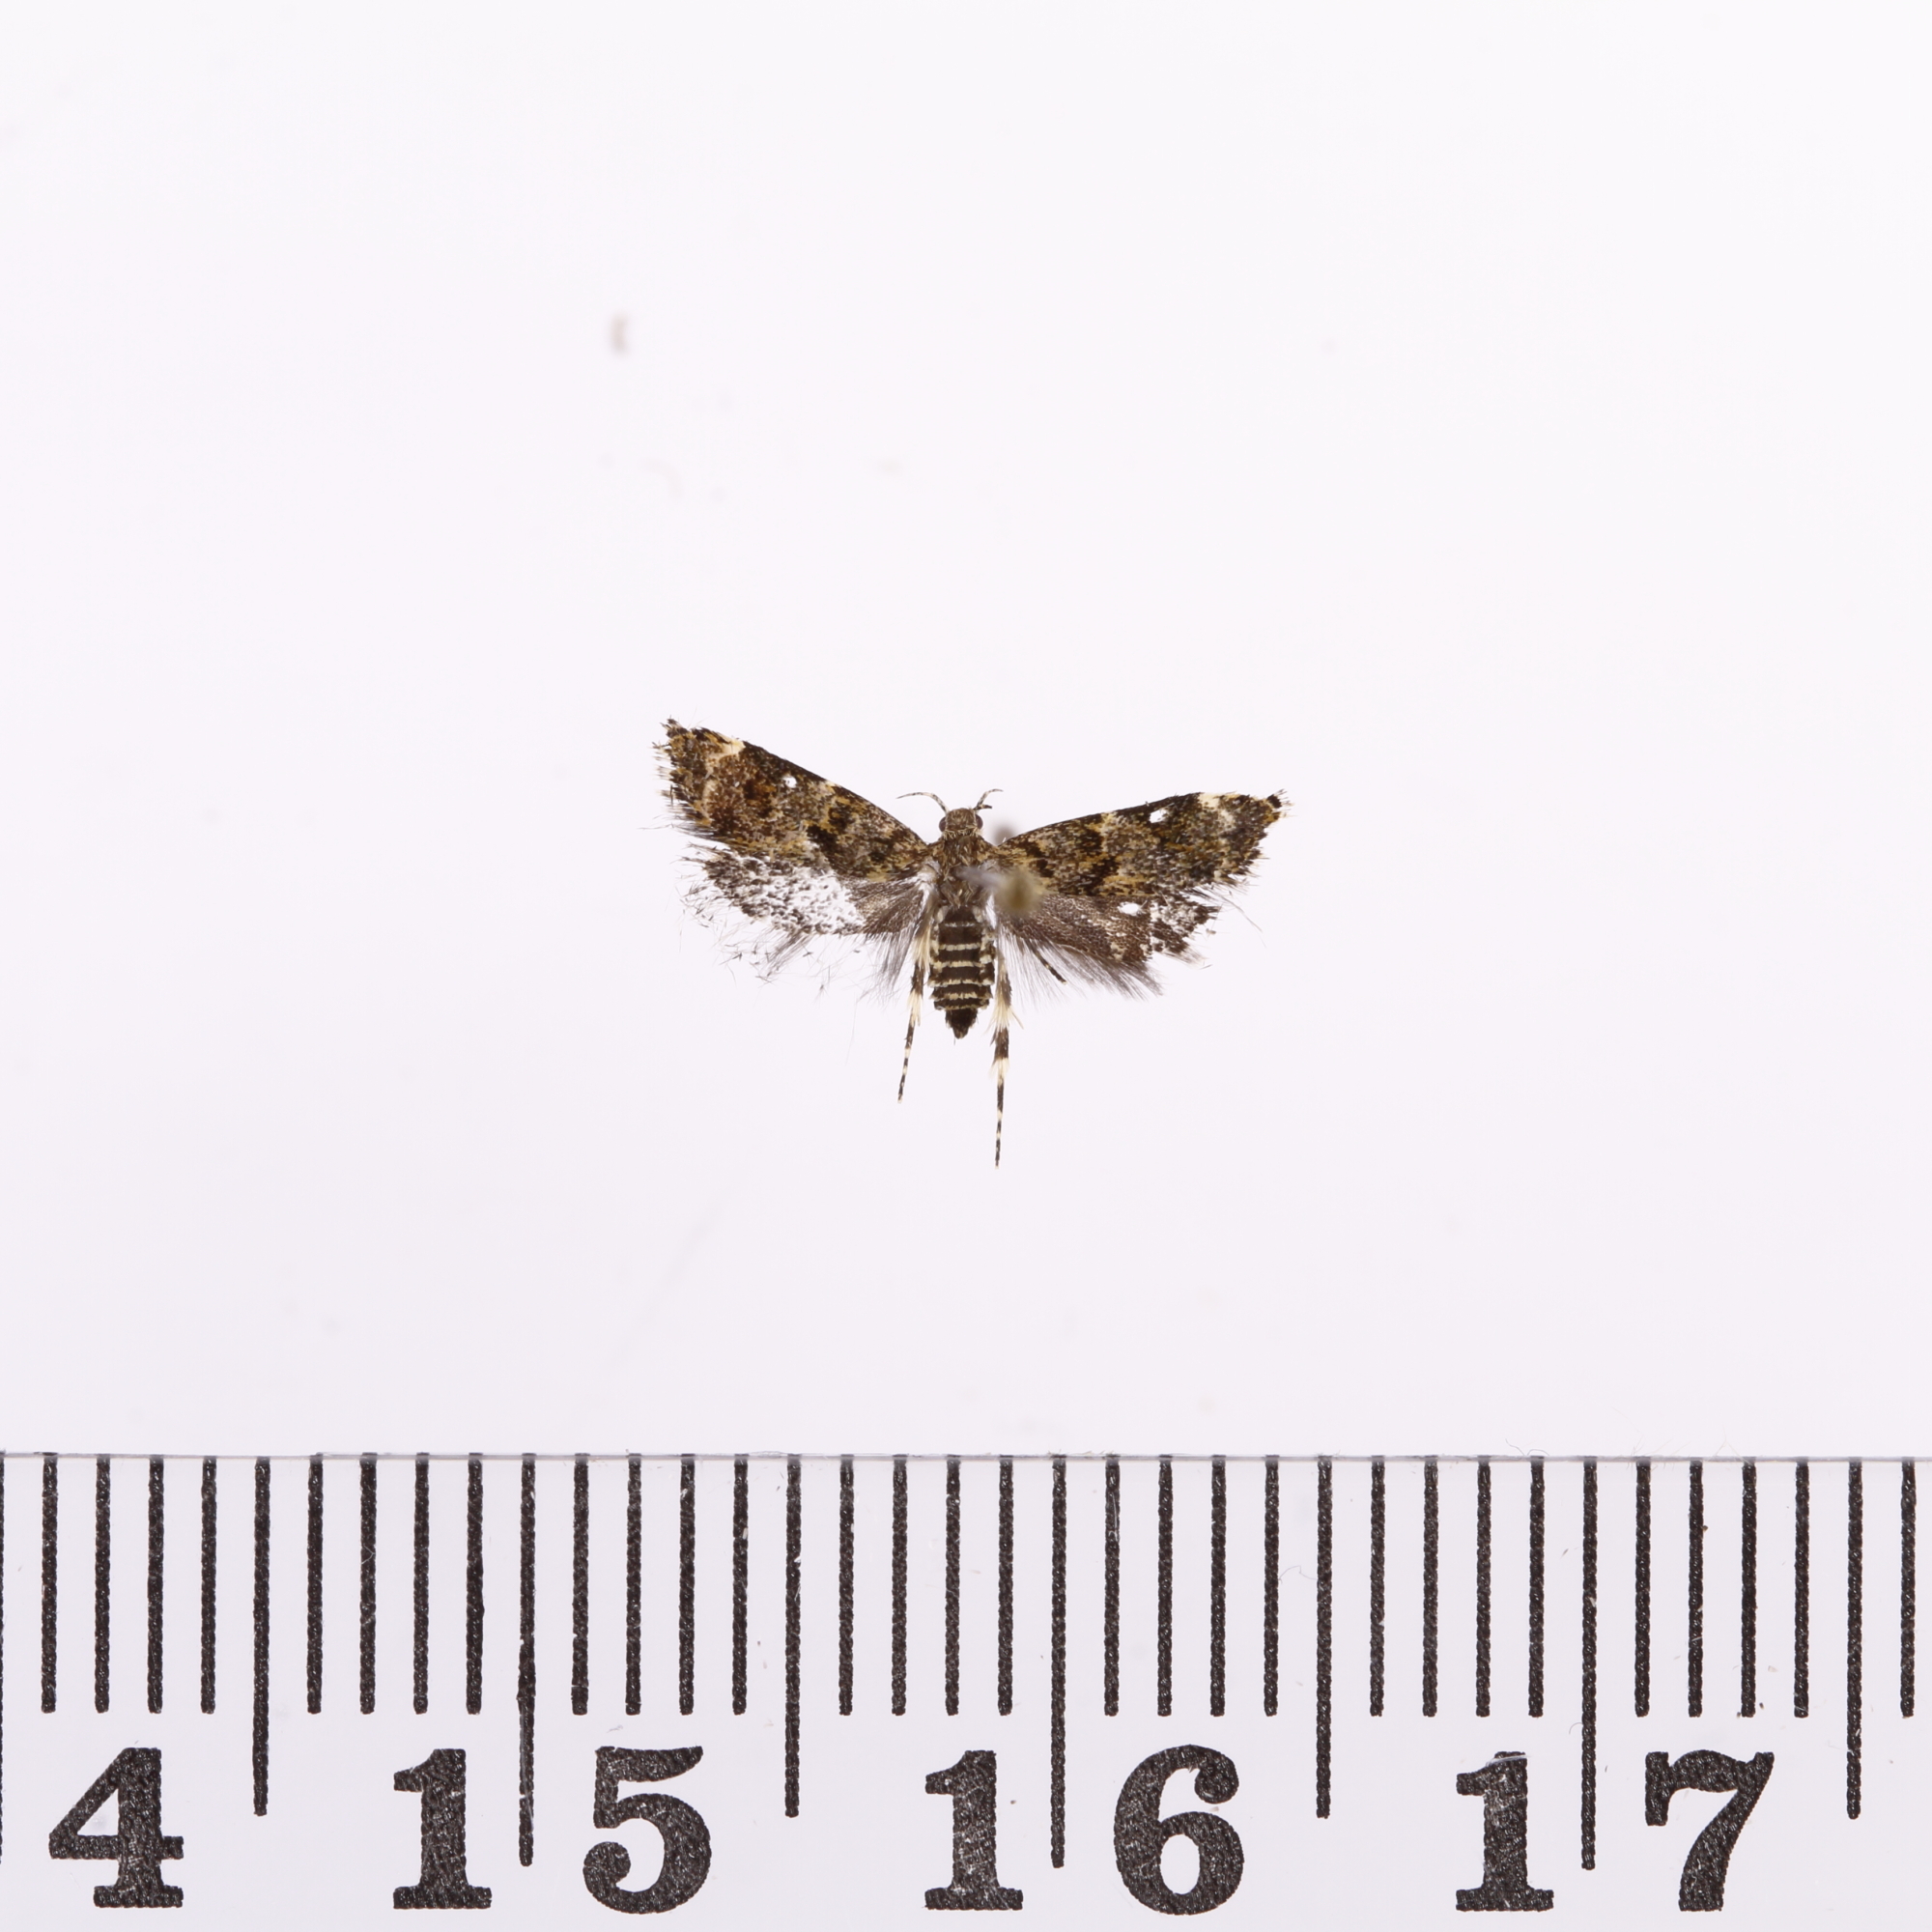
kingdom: Animalia
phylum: Arthropoda
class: Insecta
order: Lepidoptera
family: Oecophoridae
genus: Gymnobathra
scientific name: Gymnobathra omphalota
